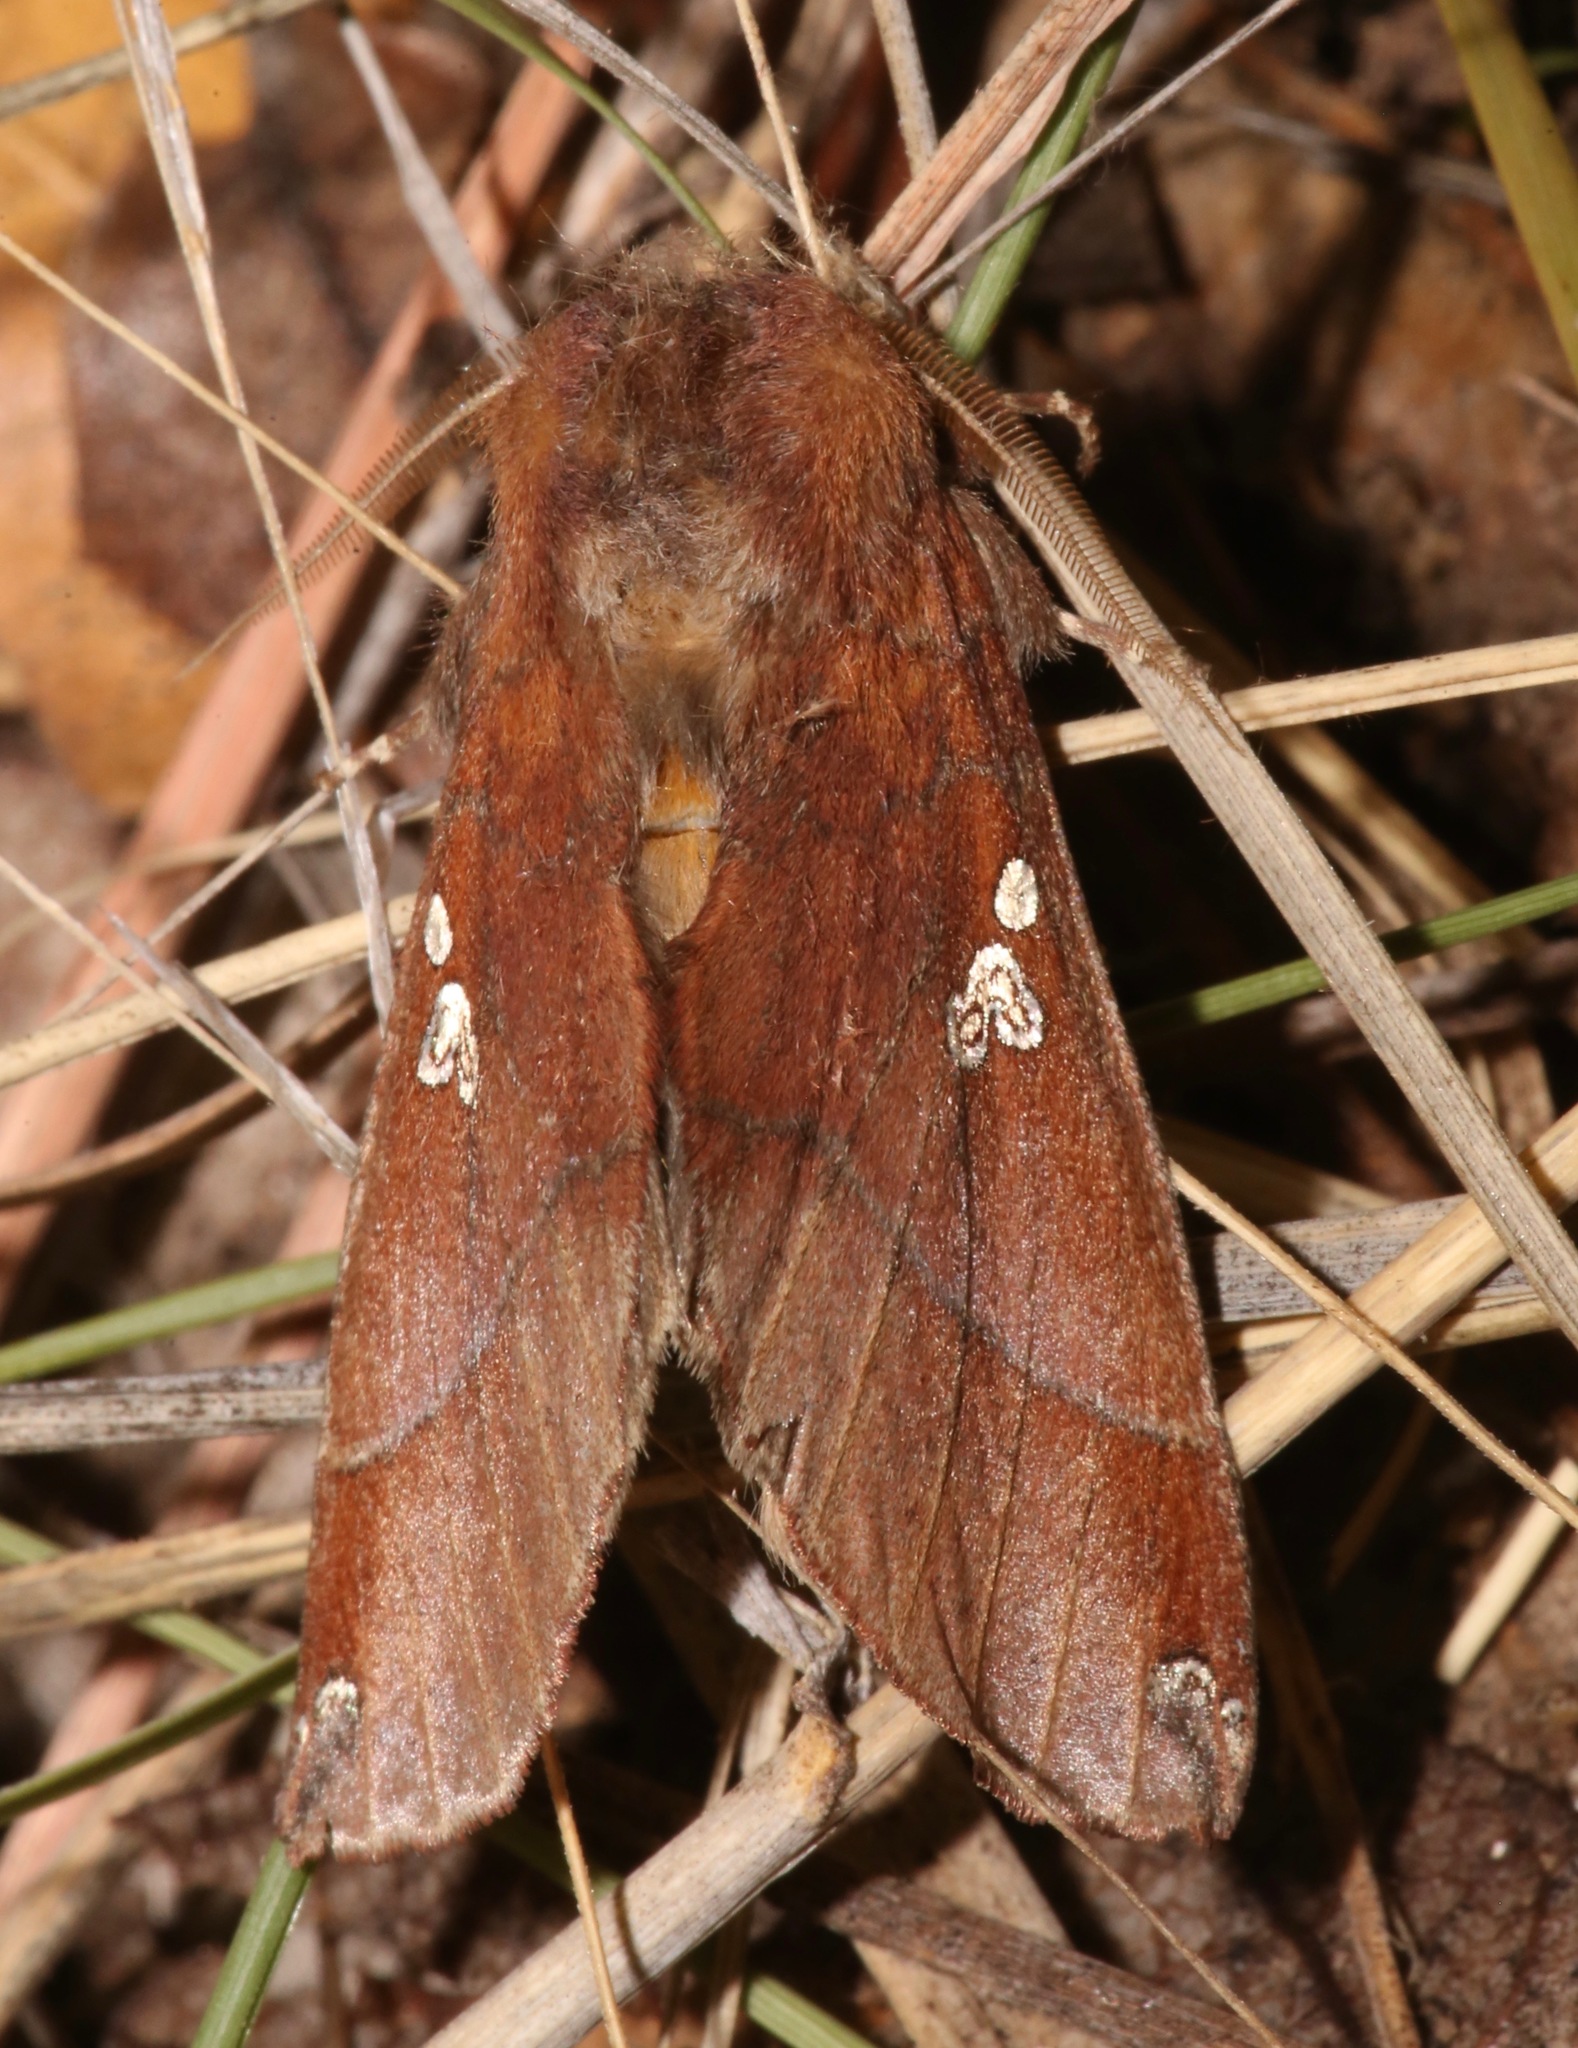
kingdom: Animalia
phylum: Arthropoda
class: Insecta
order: Lepidoptera
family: Notodontidae
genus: Pseudhapigia
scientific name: Pseudhapigia brunnea
